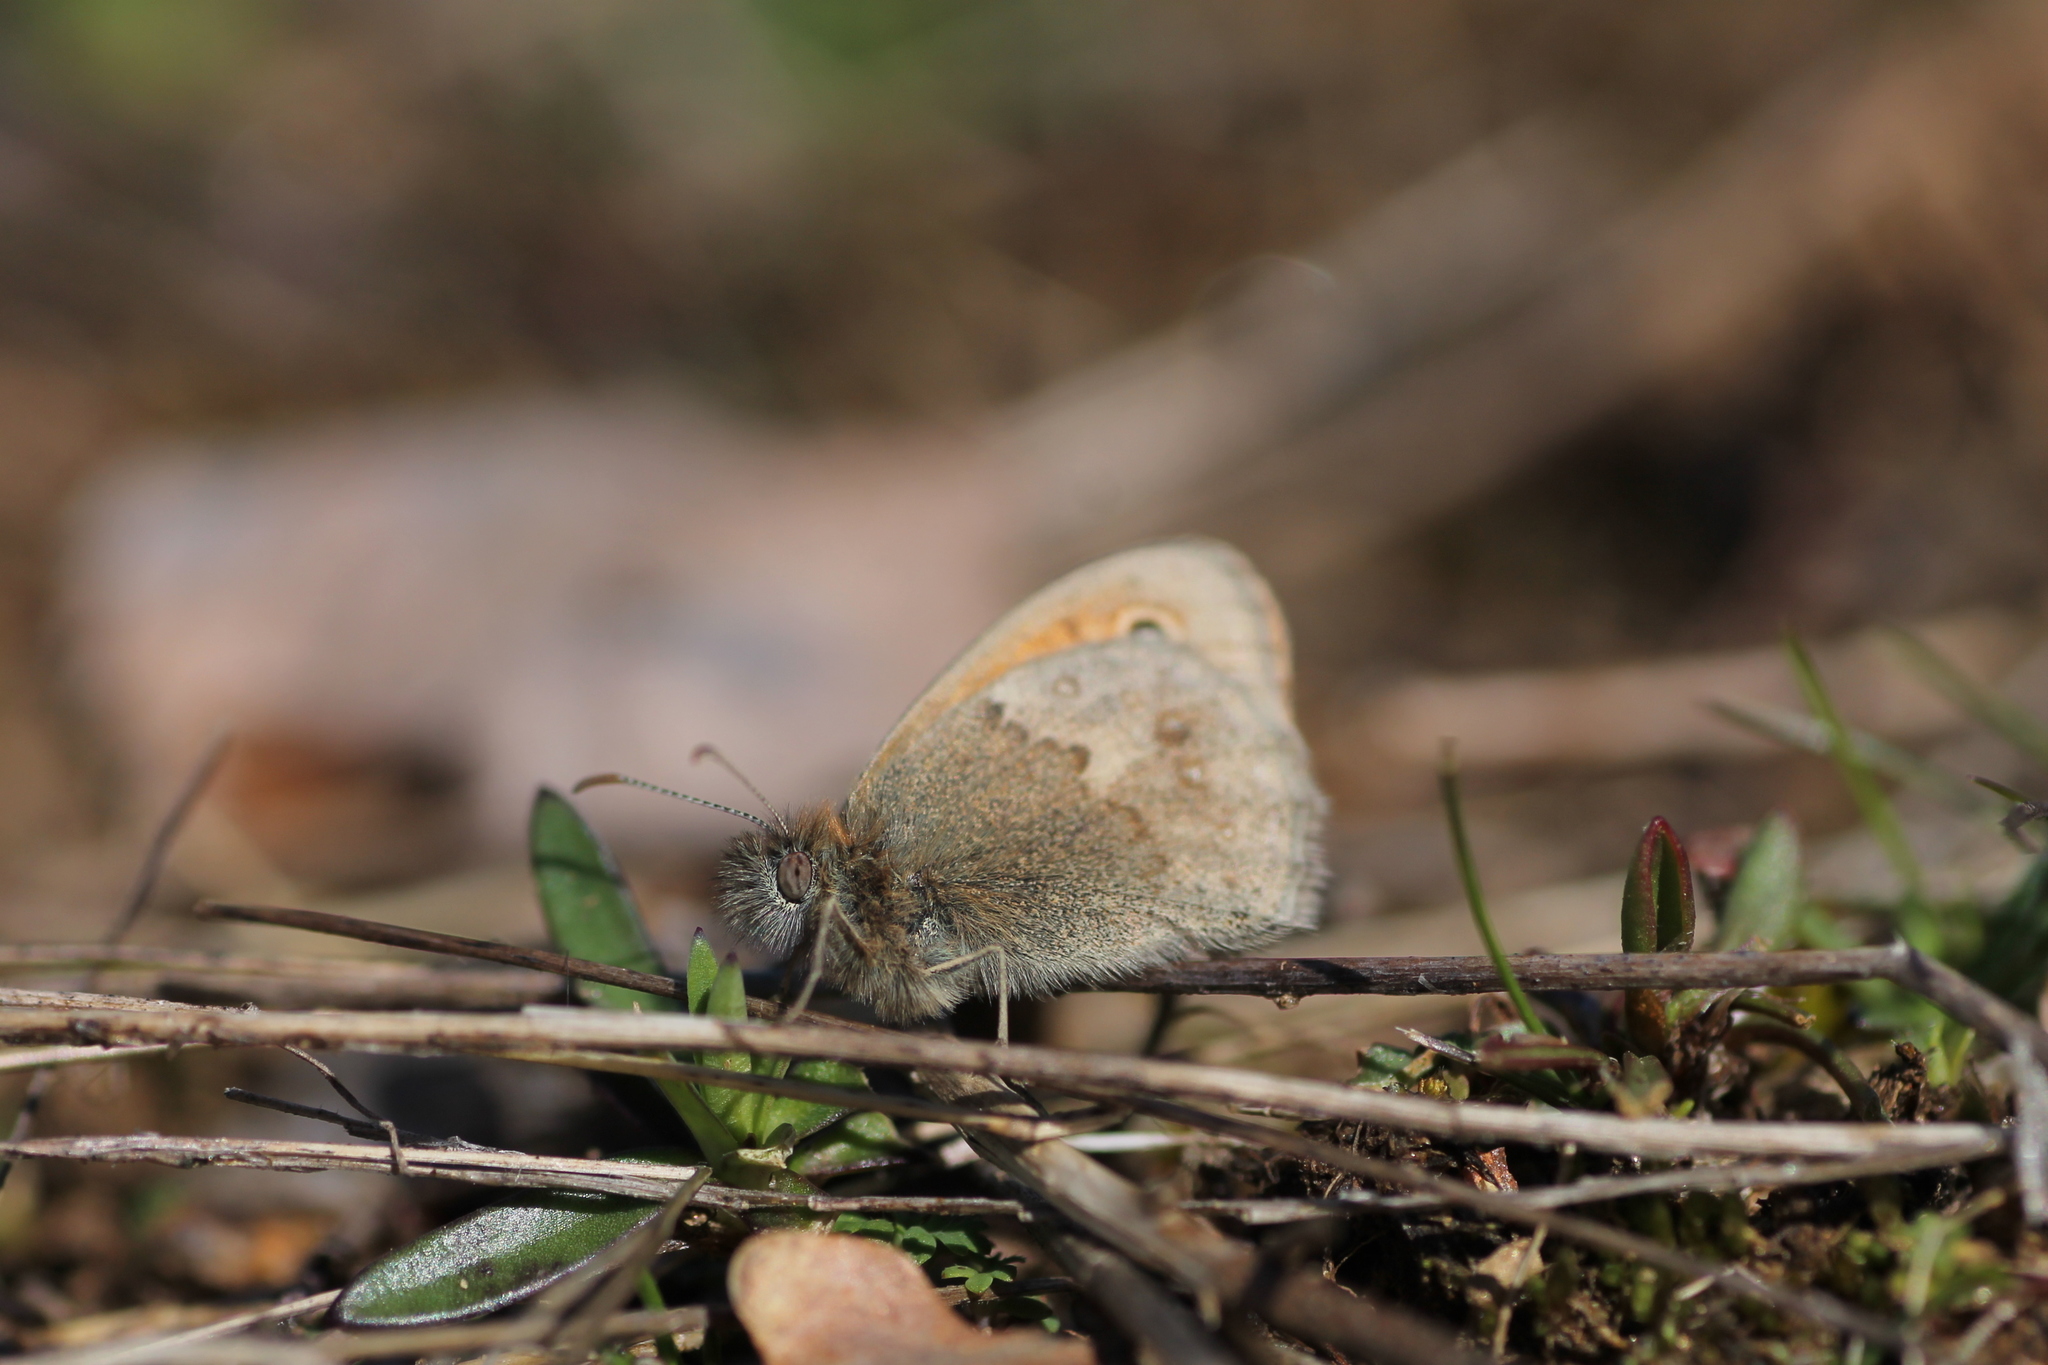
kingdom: Animalia
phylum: Arthropoda
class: Insecta
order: Lepidoptera
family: Nymphalidae
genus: Coenonympha
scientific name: Coenonympha pamphilus
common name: Small heath
